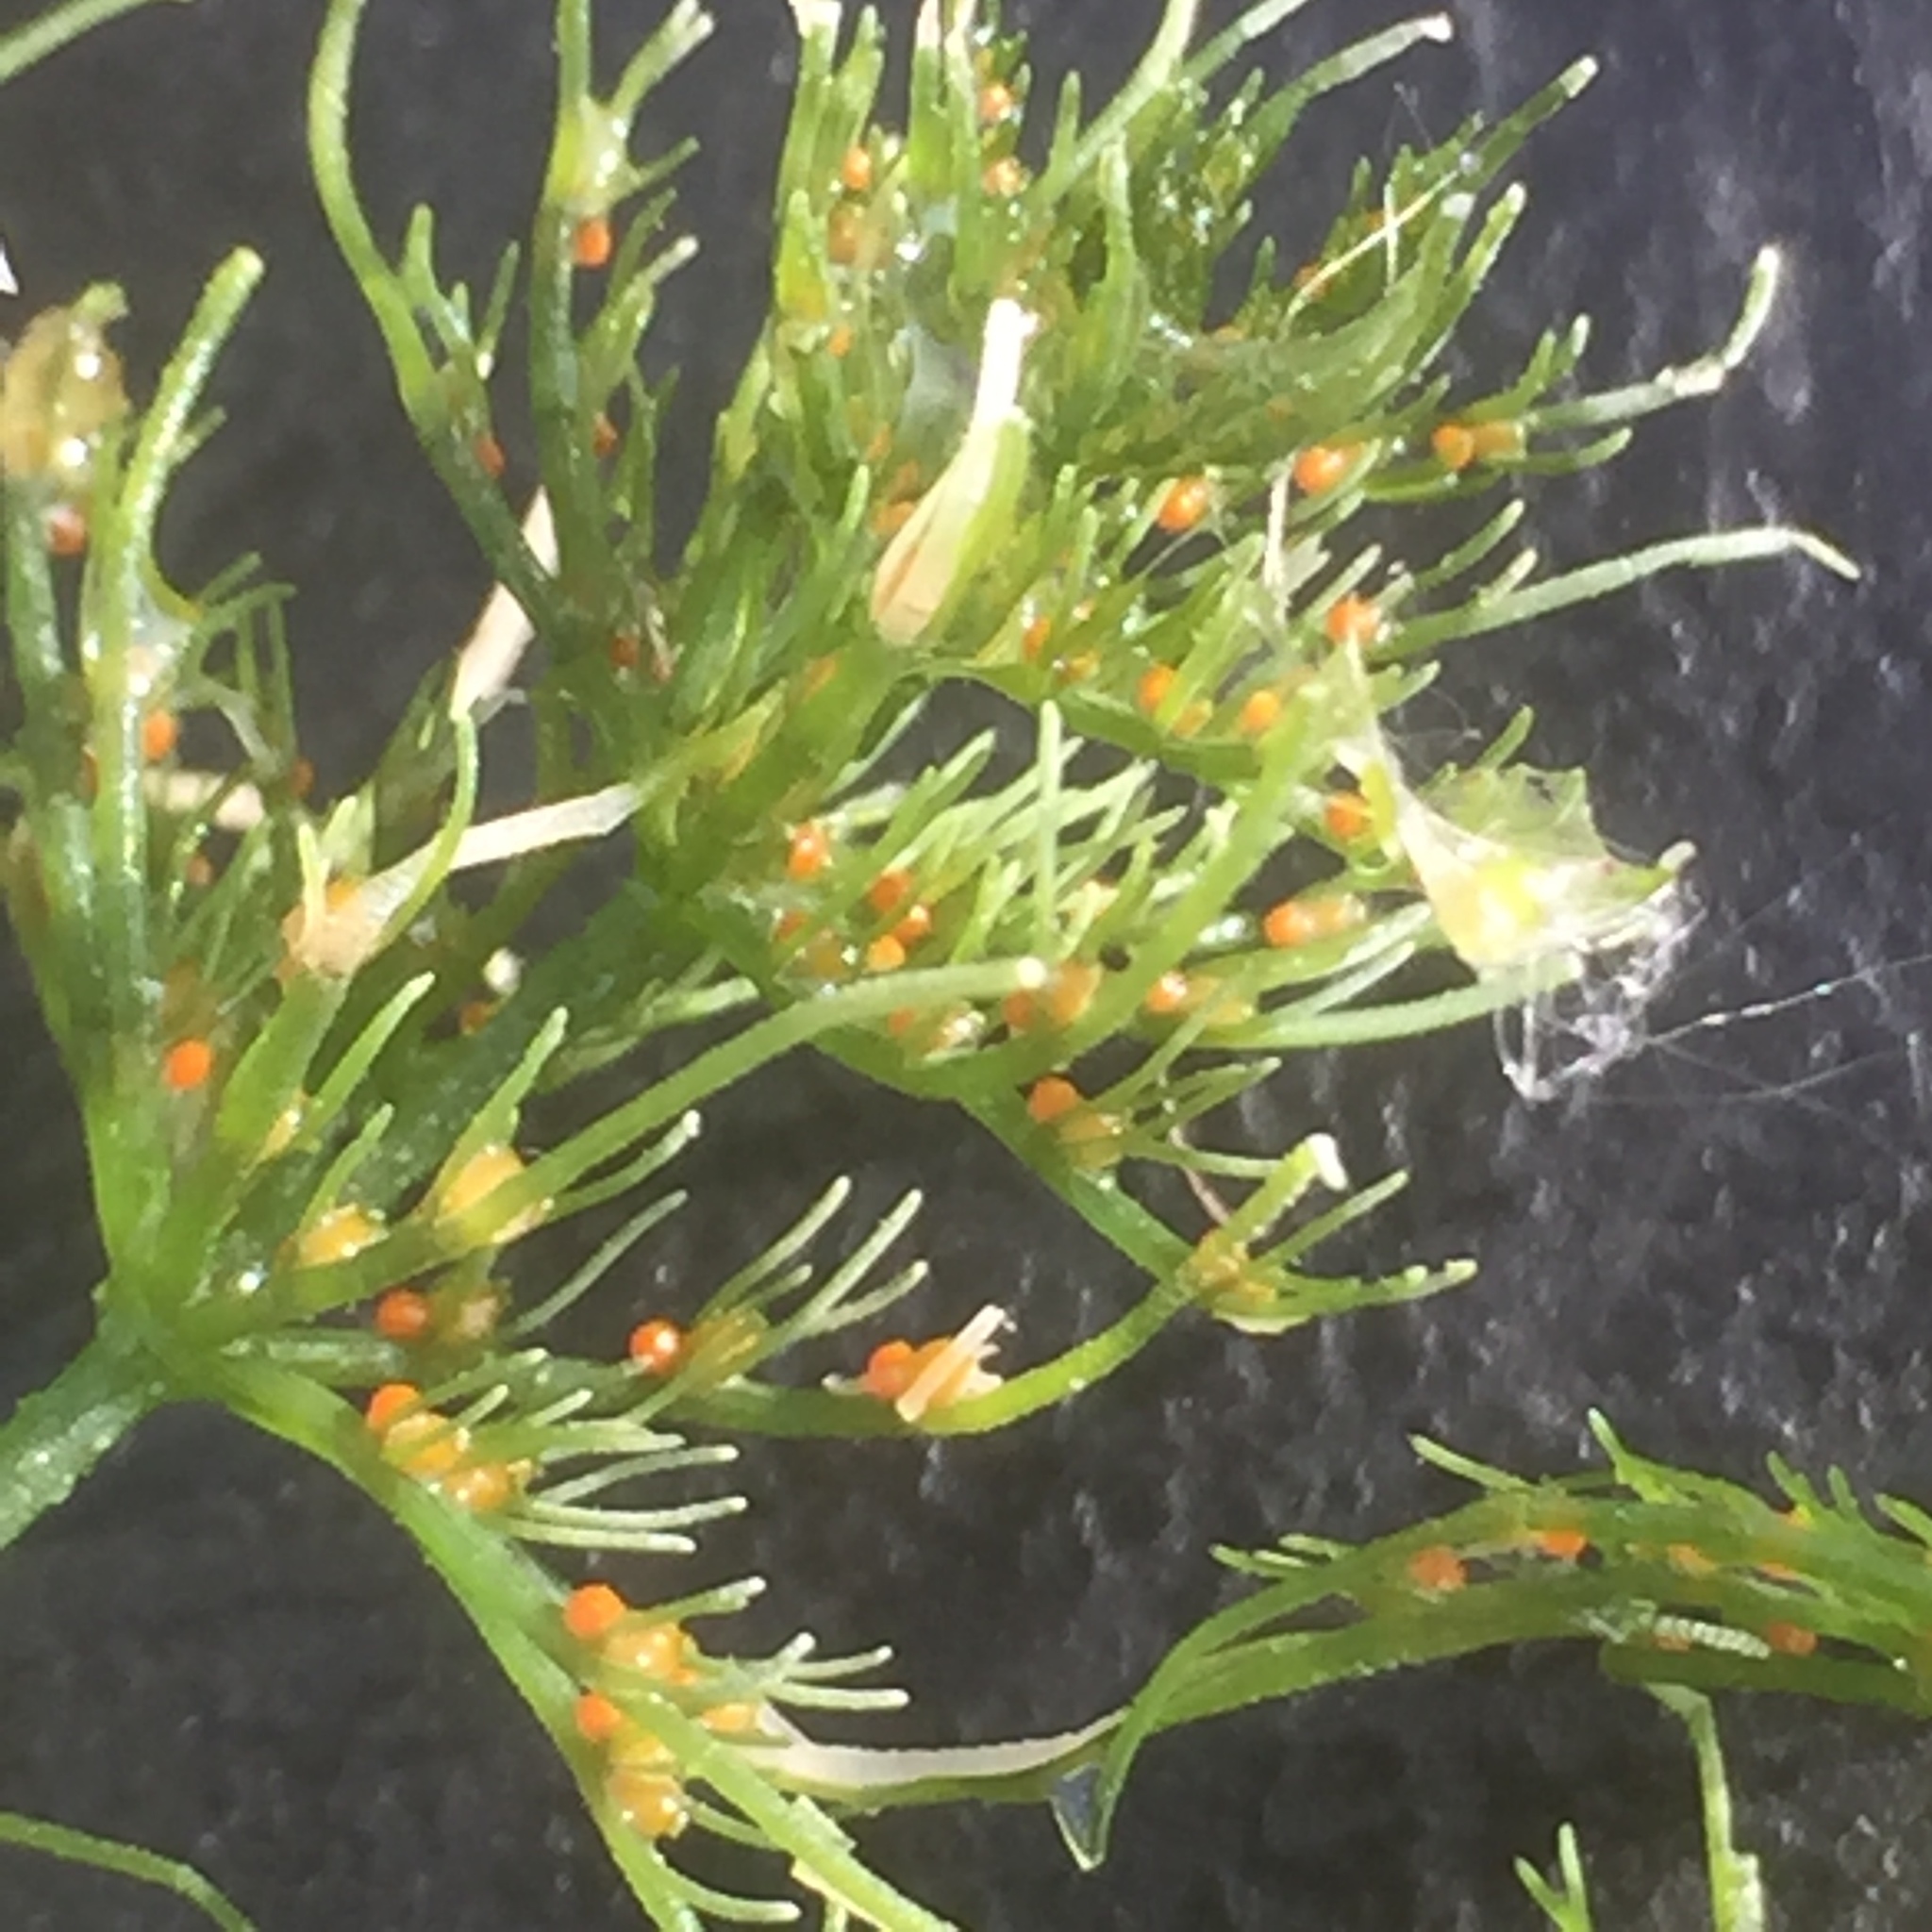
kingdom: Plantae
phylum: Charophyta
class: Charophyceae
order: Charales
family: Characeae
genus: Chara
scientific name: Chara vulgaris
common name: Common stonewort
